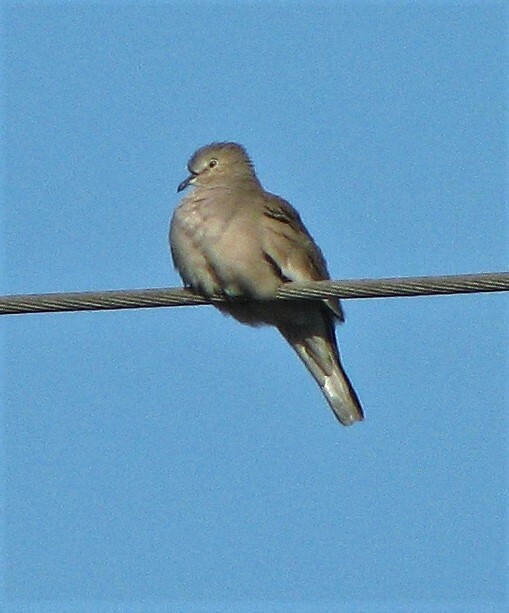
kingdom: Animalia
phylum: Chordata
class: Aves
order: Columbiformes
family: Columbidae
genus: Columbina
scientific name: Columbina picui
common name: Picui ground dove
